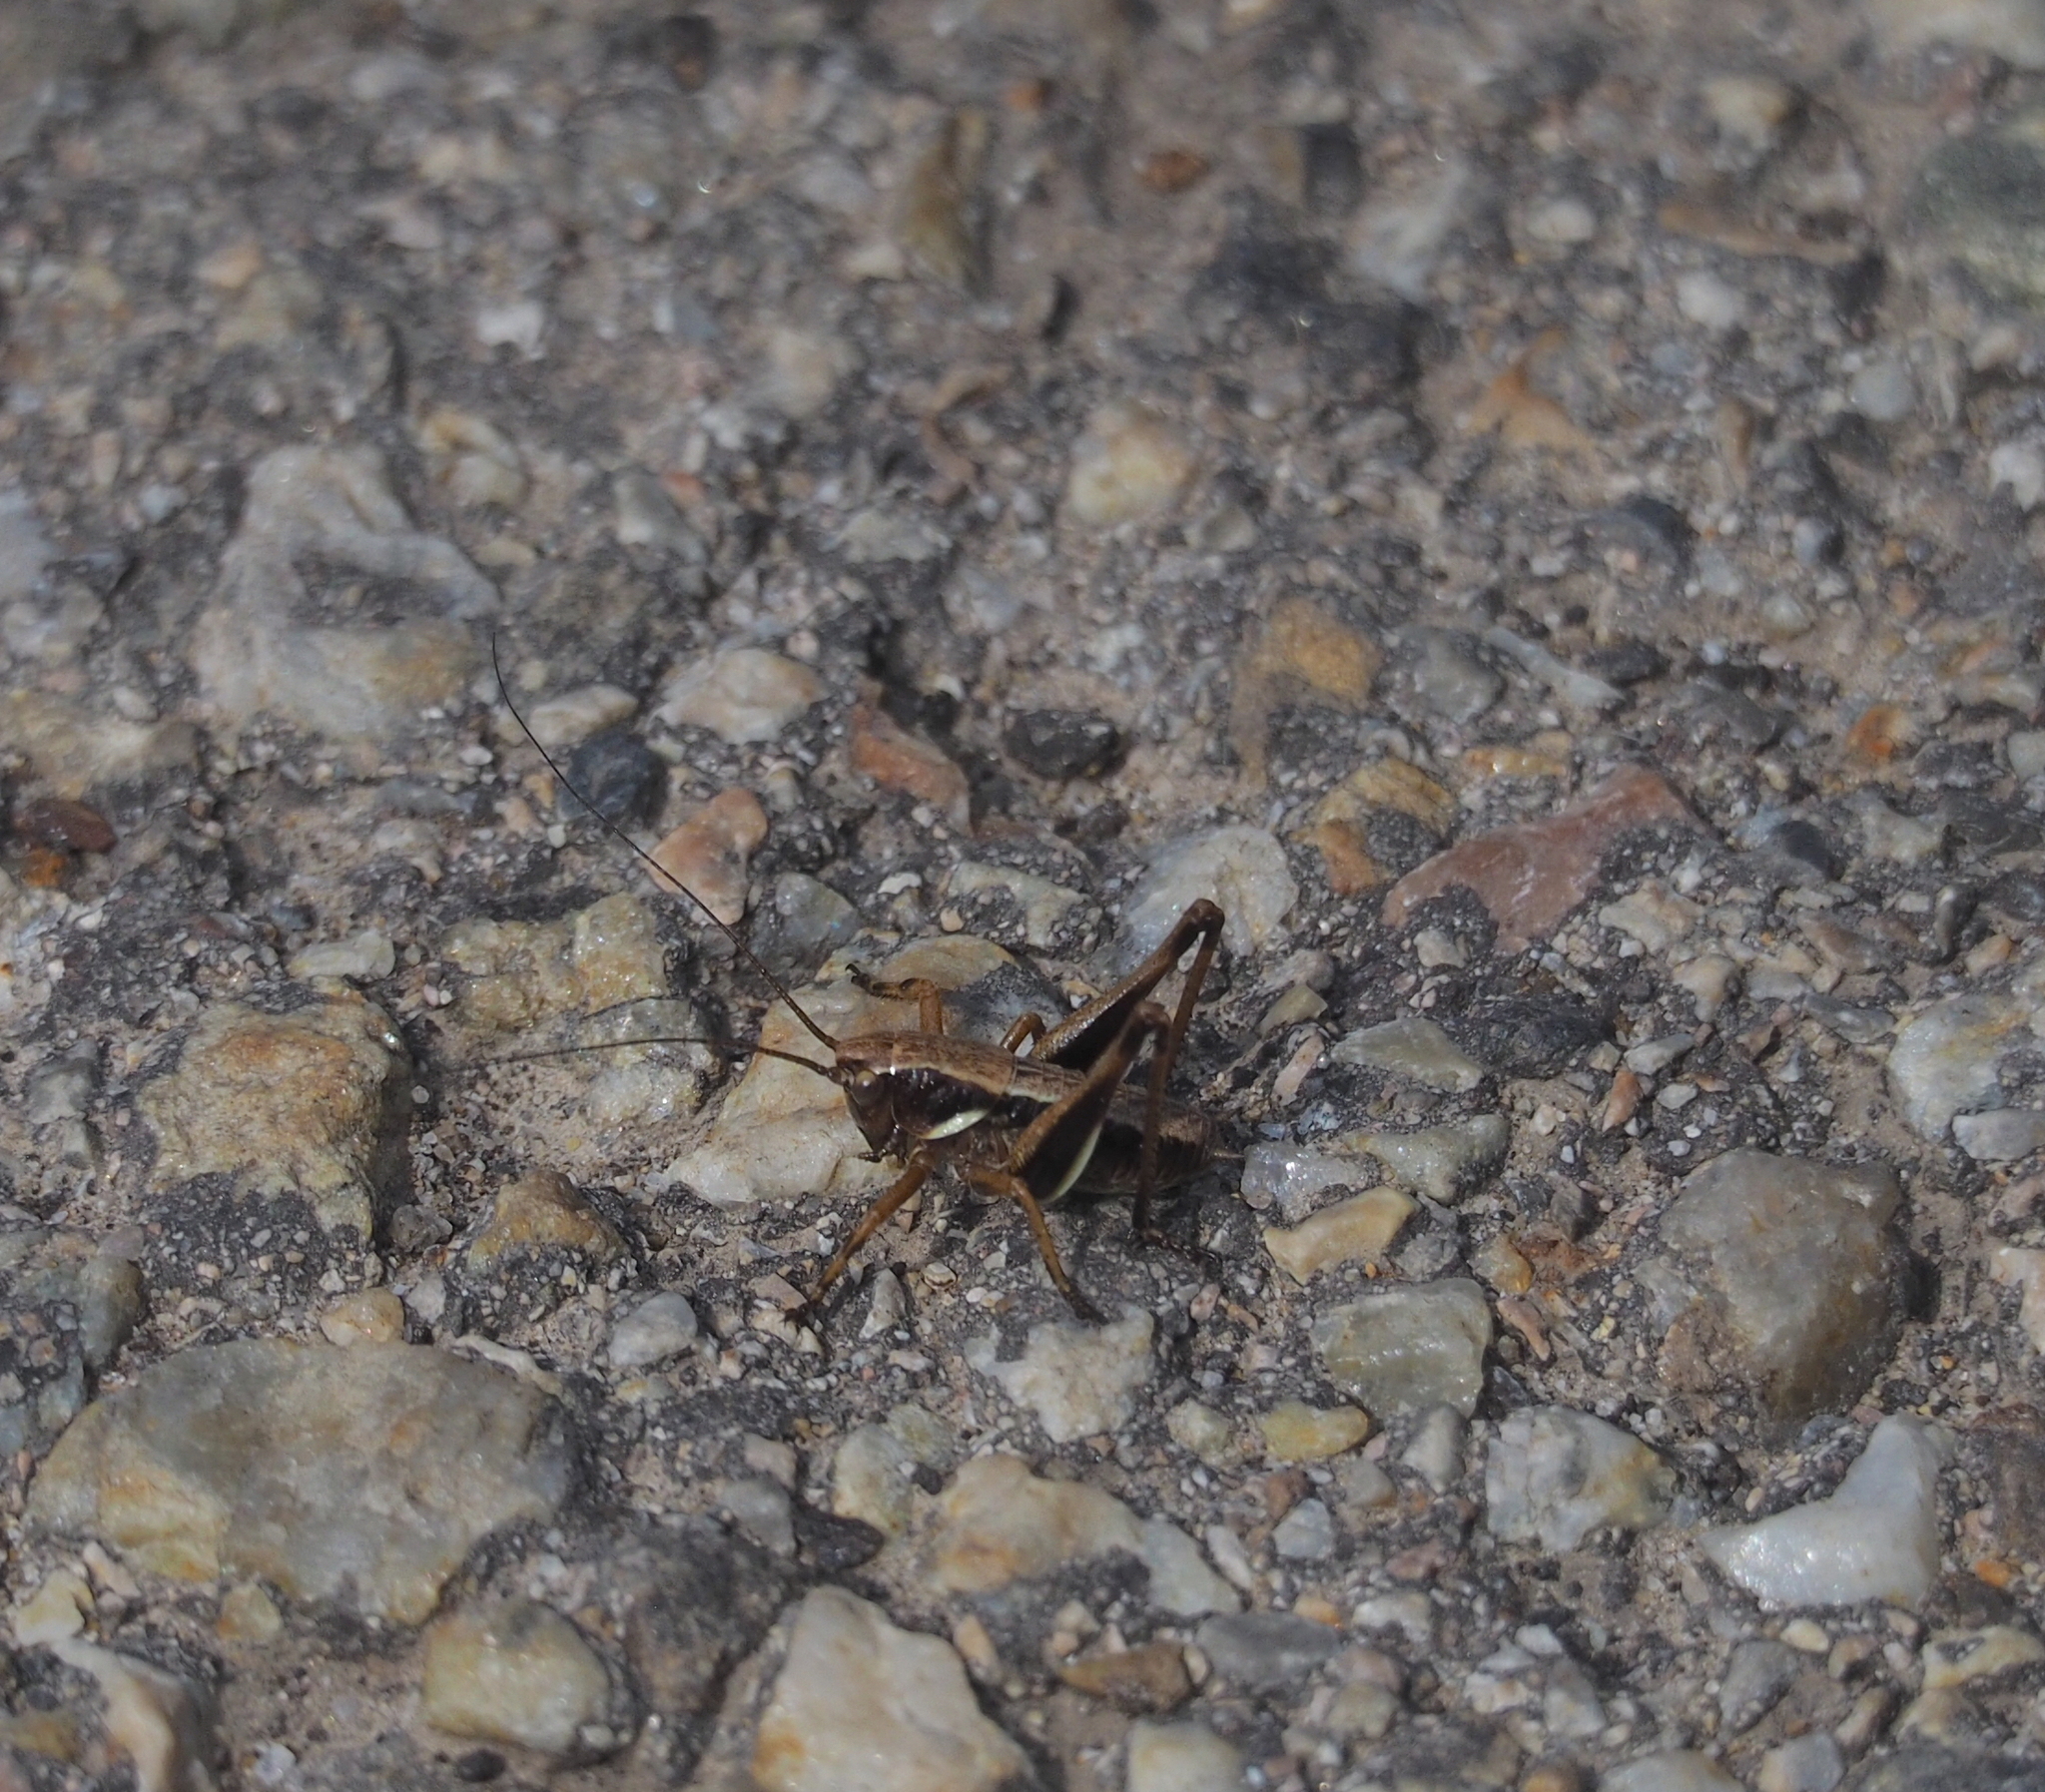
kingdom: Animalia
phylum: Arthropoda
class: Insecta
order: Orthoptera
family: Tettigoniidae
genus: Pholidoptera
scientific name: Pholidoptera aptera
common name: Alpine dark bush-cricket
